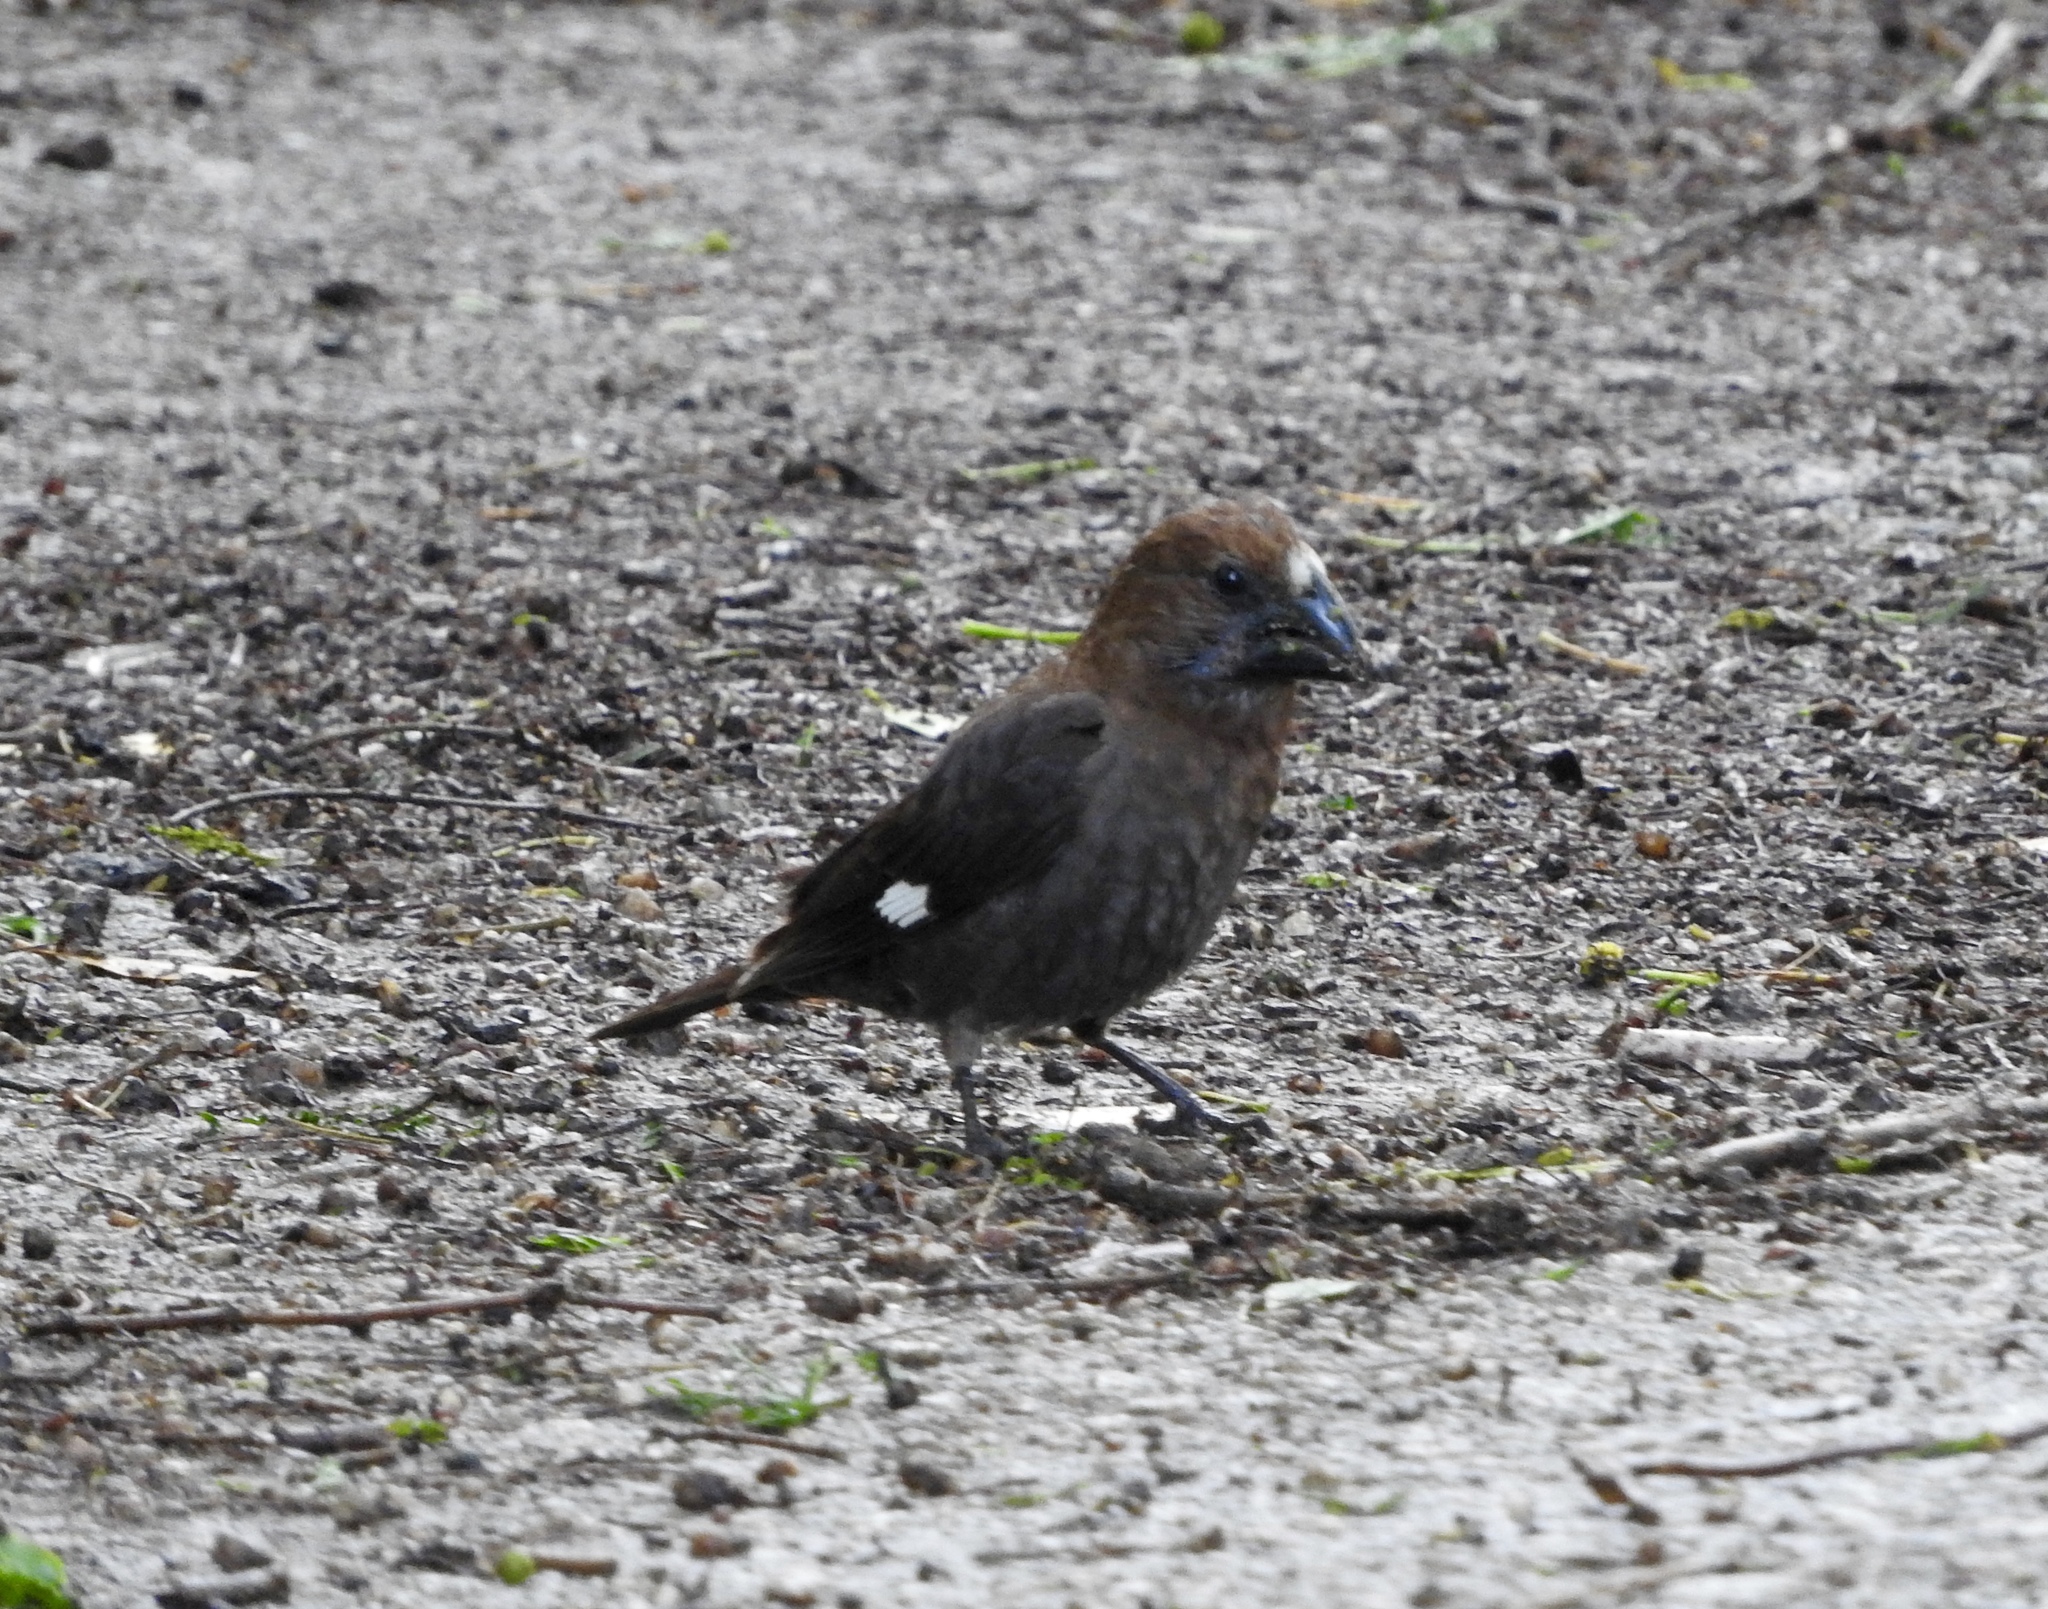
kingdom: Animalia
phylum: Chordata
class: Aves
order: Passeriformes
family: Ploceidae
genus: Amblyospiza
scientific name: Amblyospiza albifrons
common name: Thick-billed weaver
